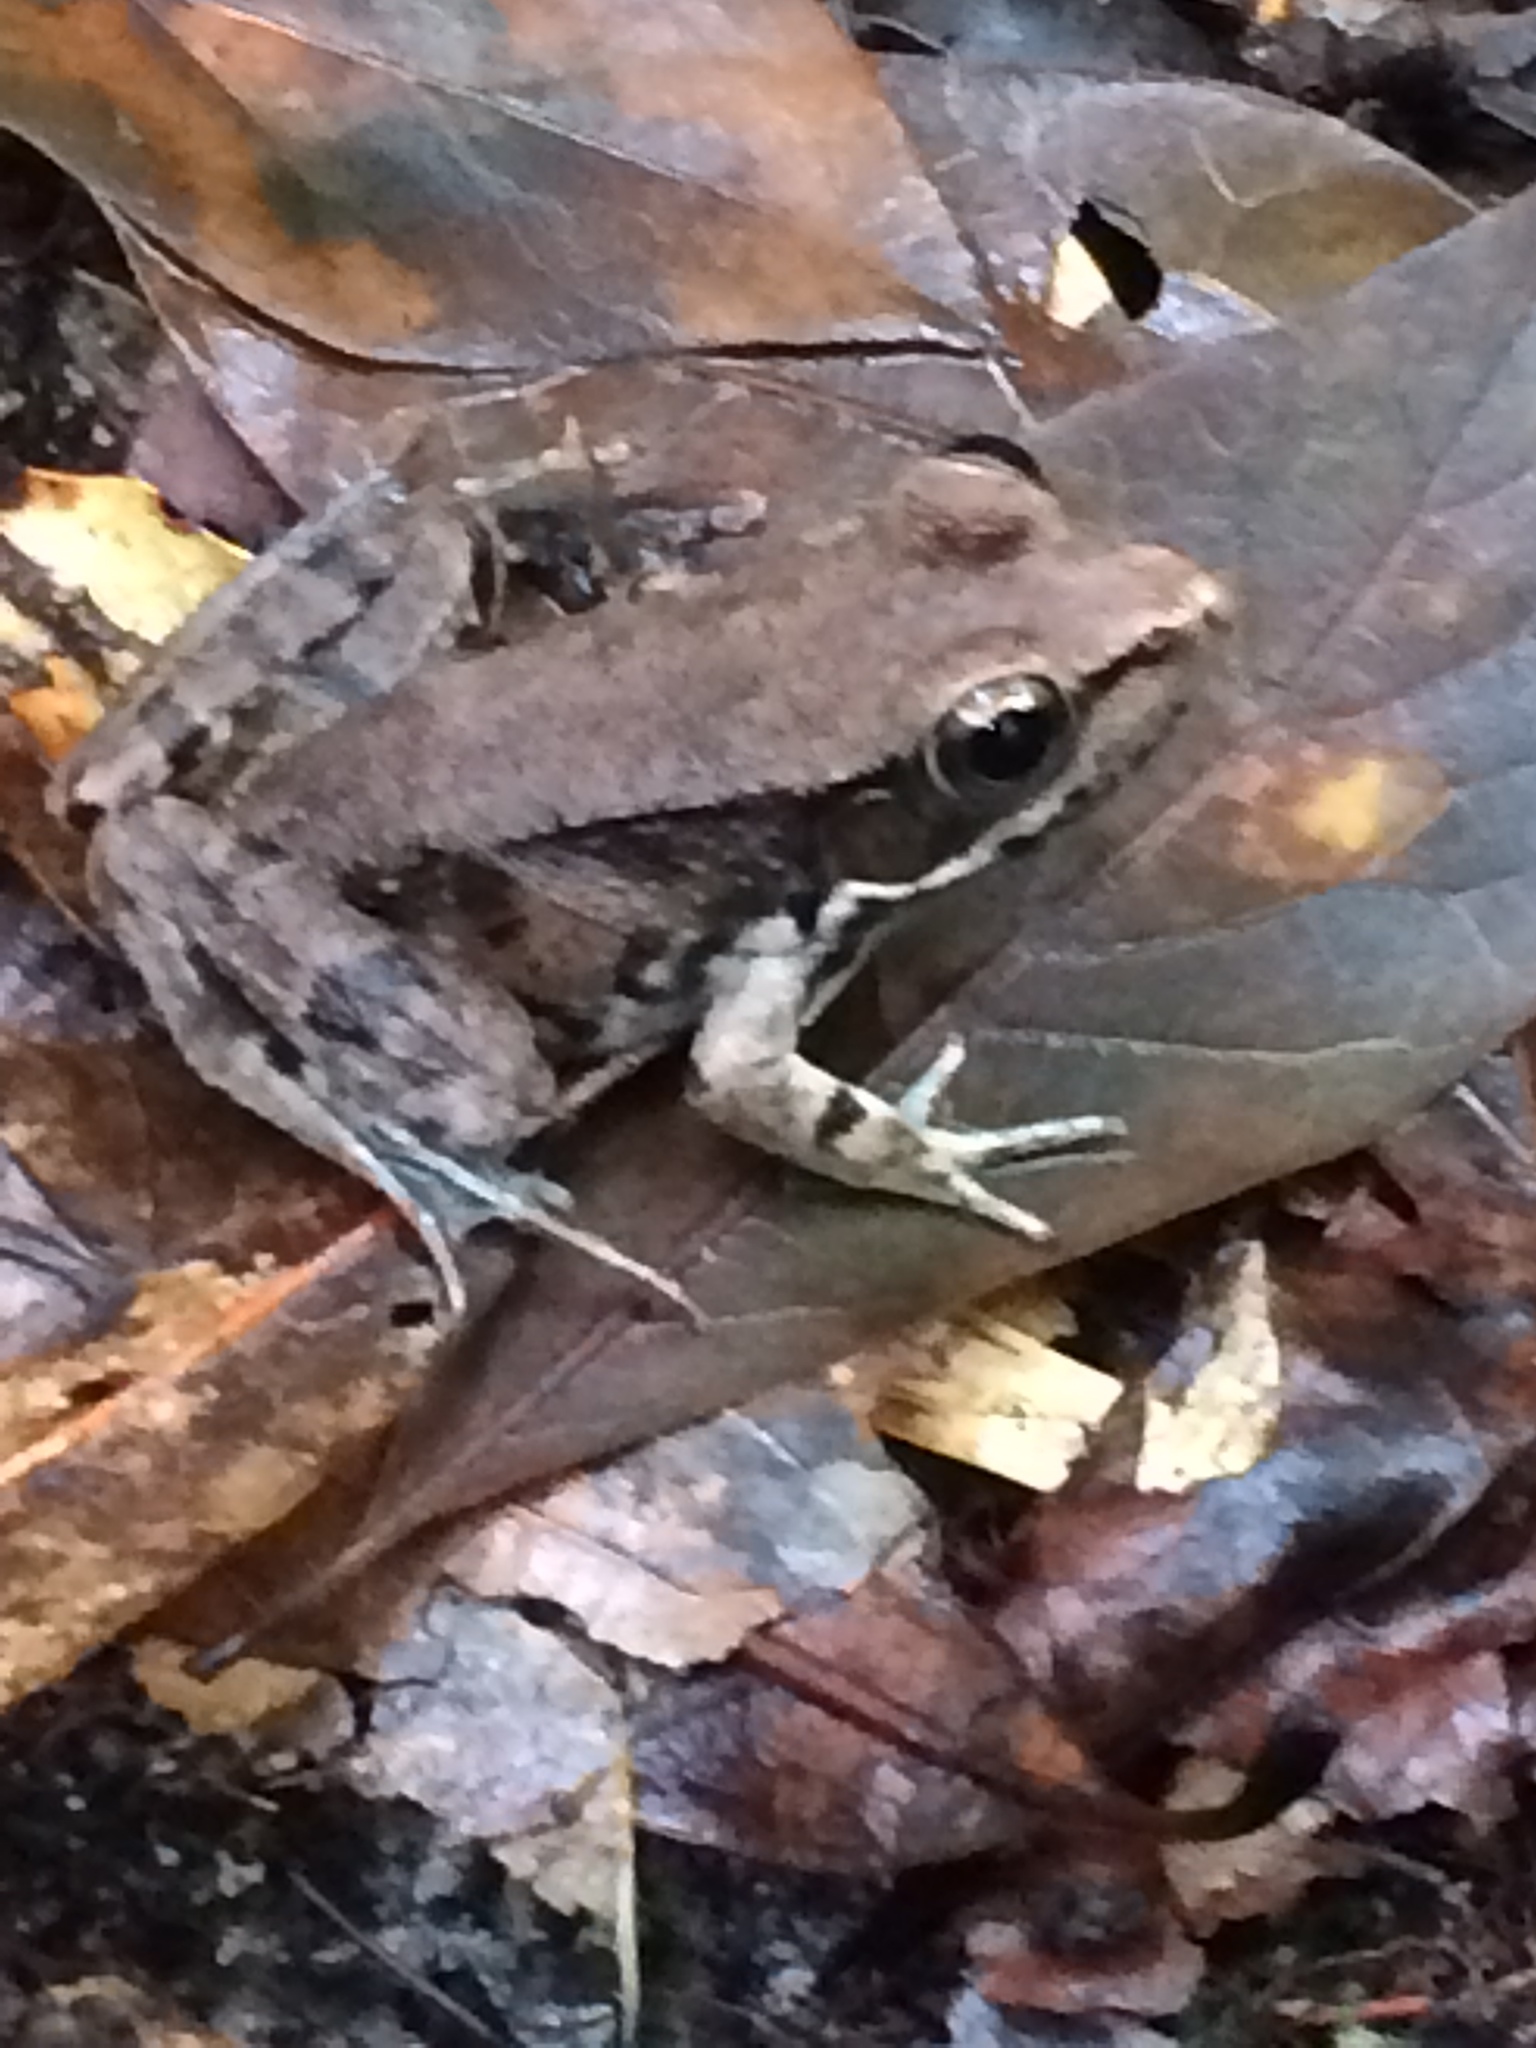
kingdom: Animalia
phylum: Chordata
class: Amphibia
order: Anura
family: Ranidae
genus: Lithobates
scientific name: Lithobates clamitans
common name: Green frog
